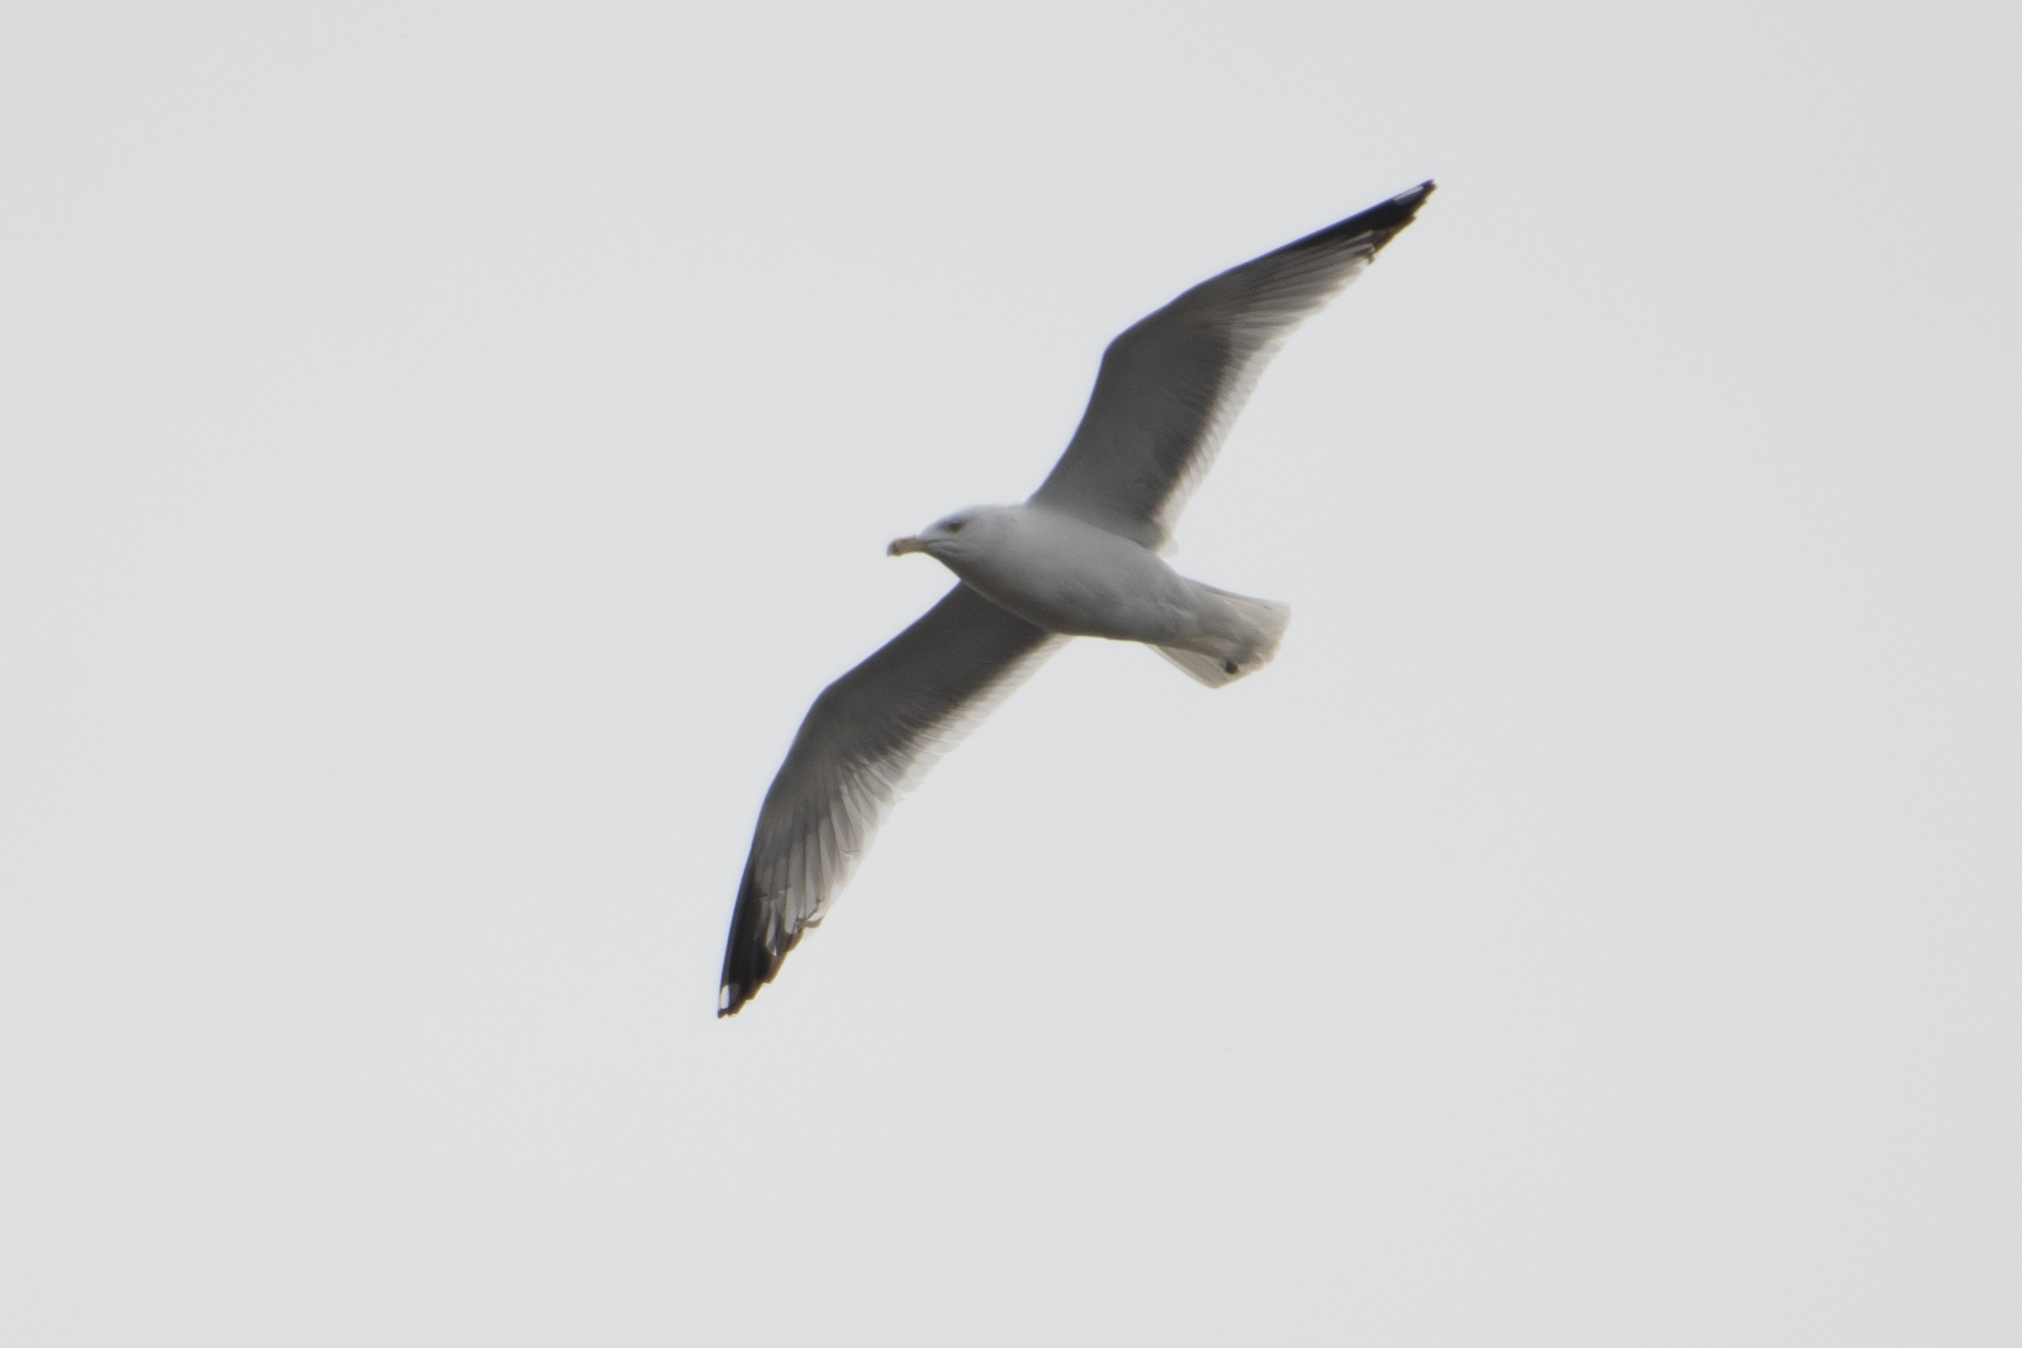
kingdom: Animalia
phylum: Chordata
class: Aves
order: Charadriiformes
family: Laridae
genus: Larus
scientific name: Larus delawarensis
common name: Ring-billed gull
